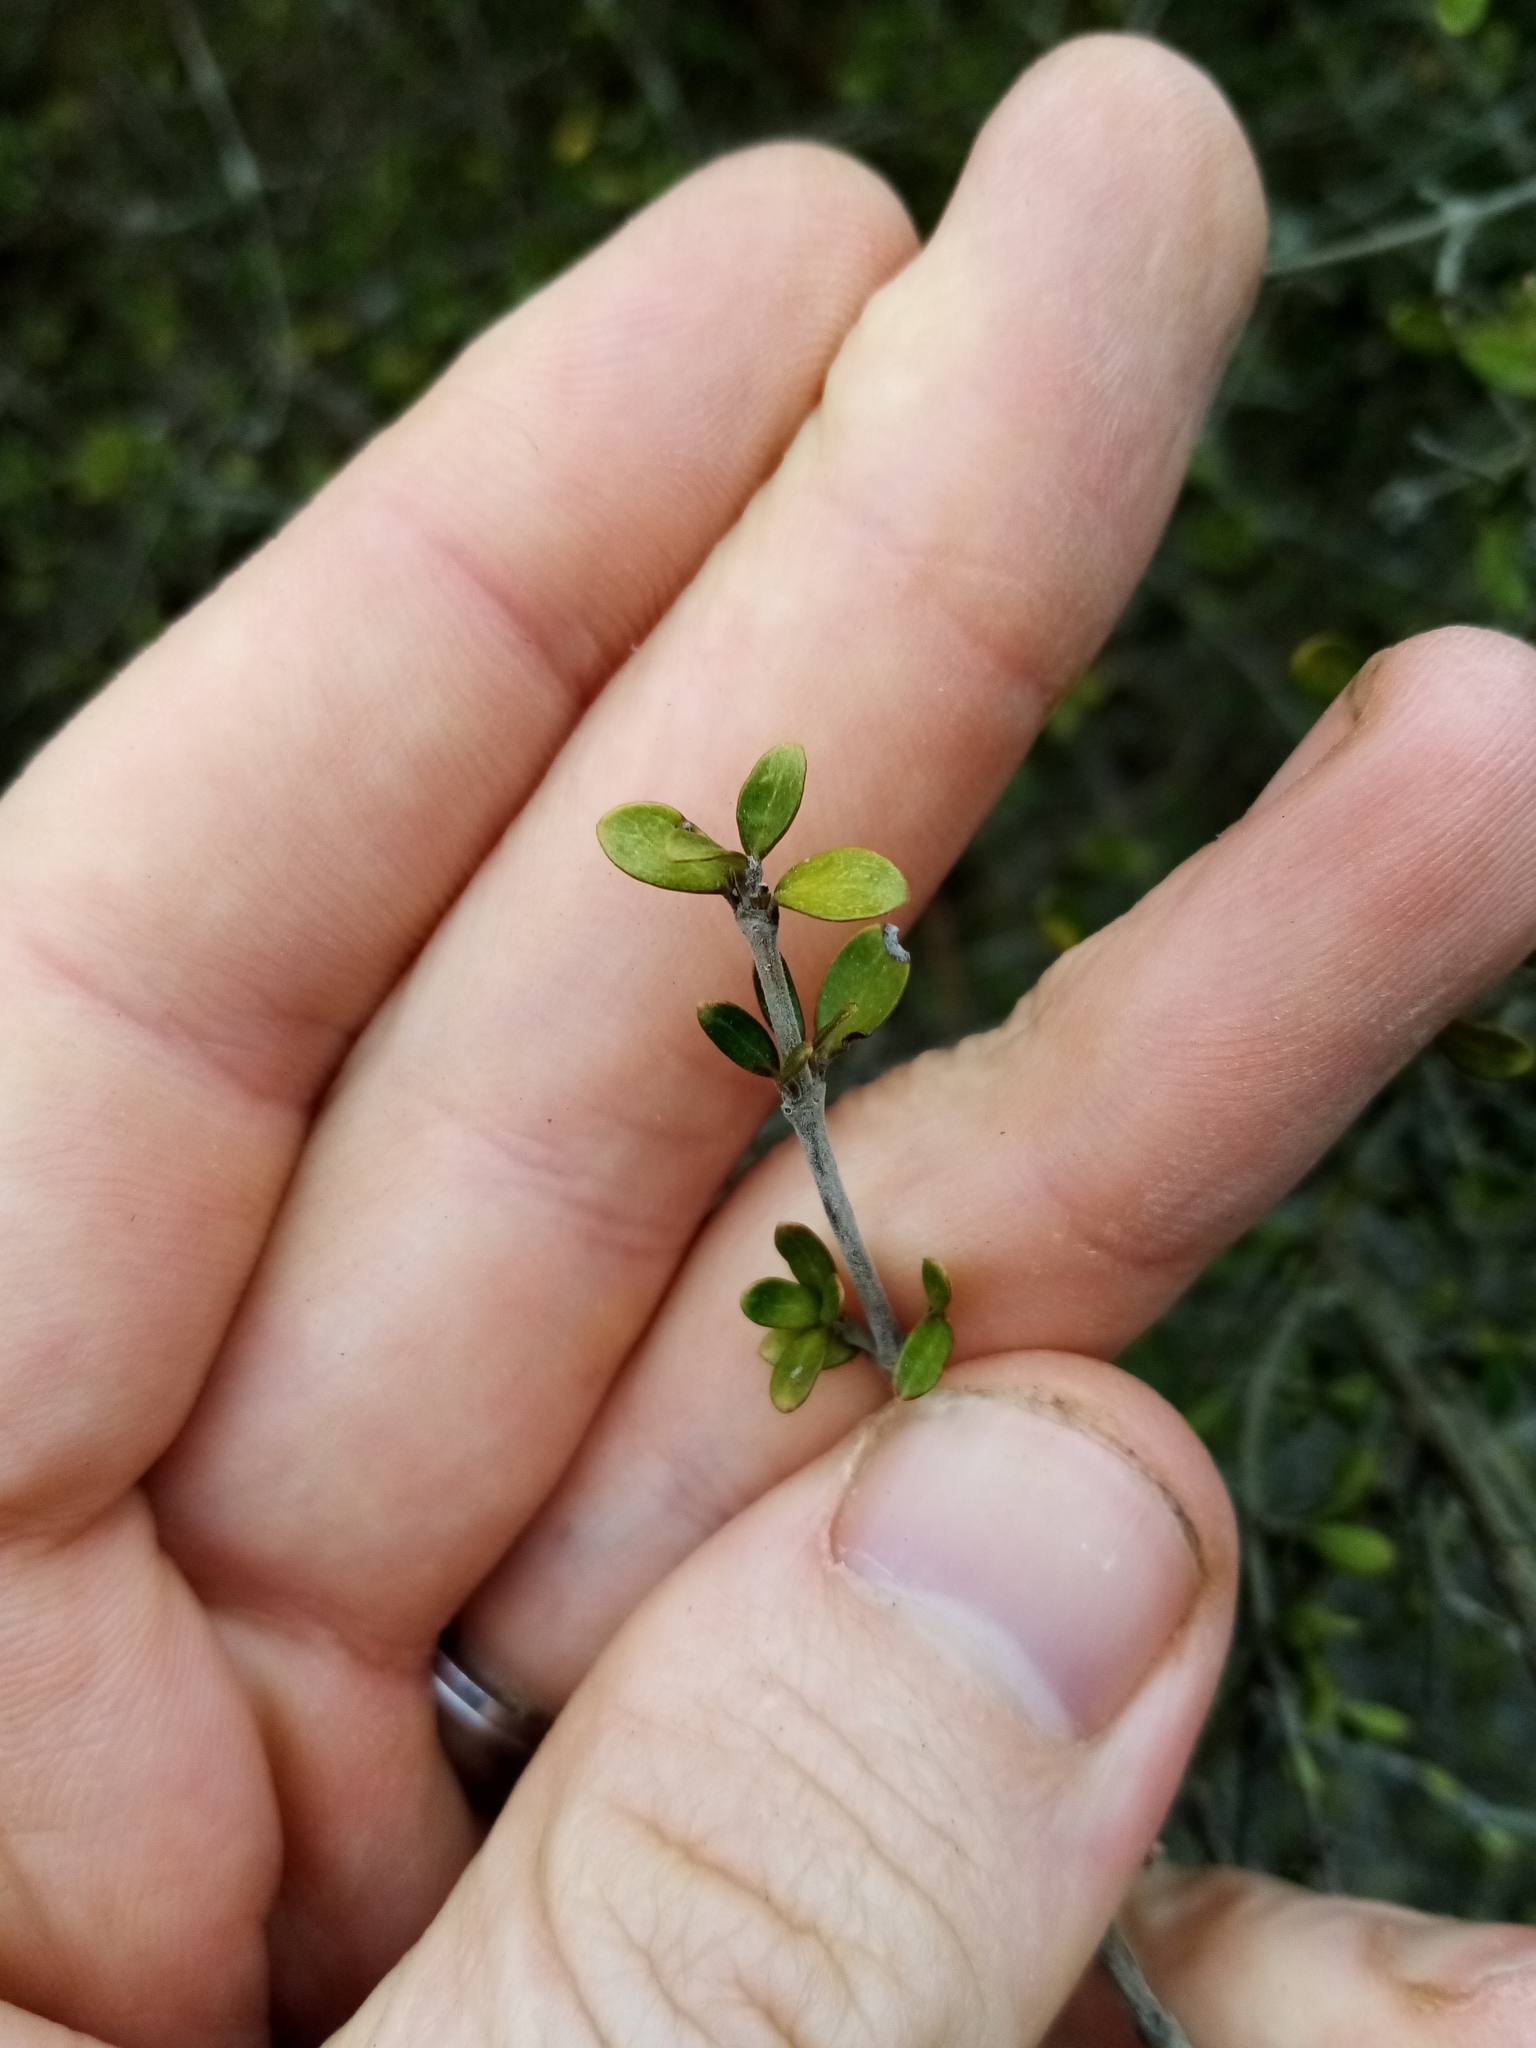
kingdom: Plantae
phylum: Tracheophyta
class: Magnoliopsida
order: Gentianales
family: Rubiaceae
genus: Coprosma
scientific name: Coprosma dumosa
